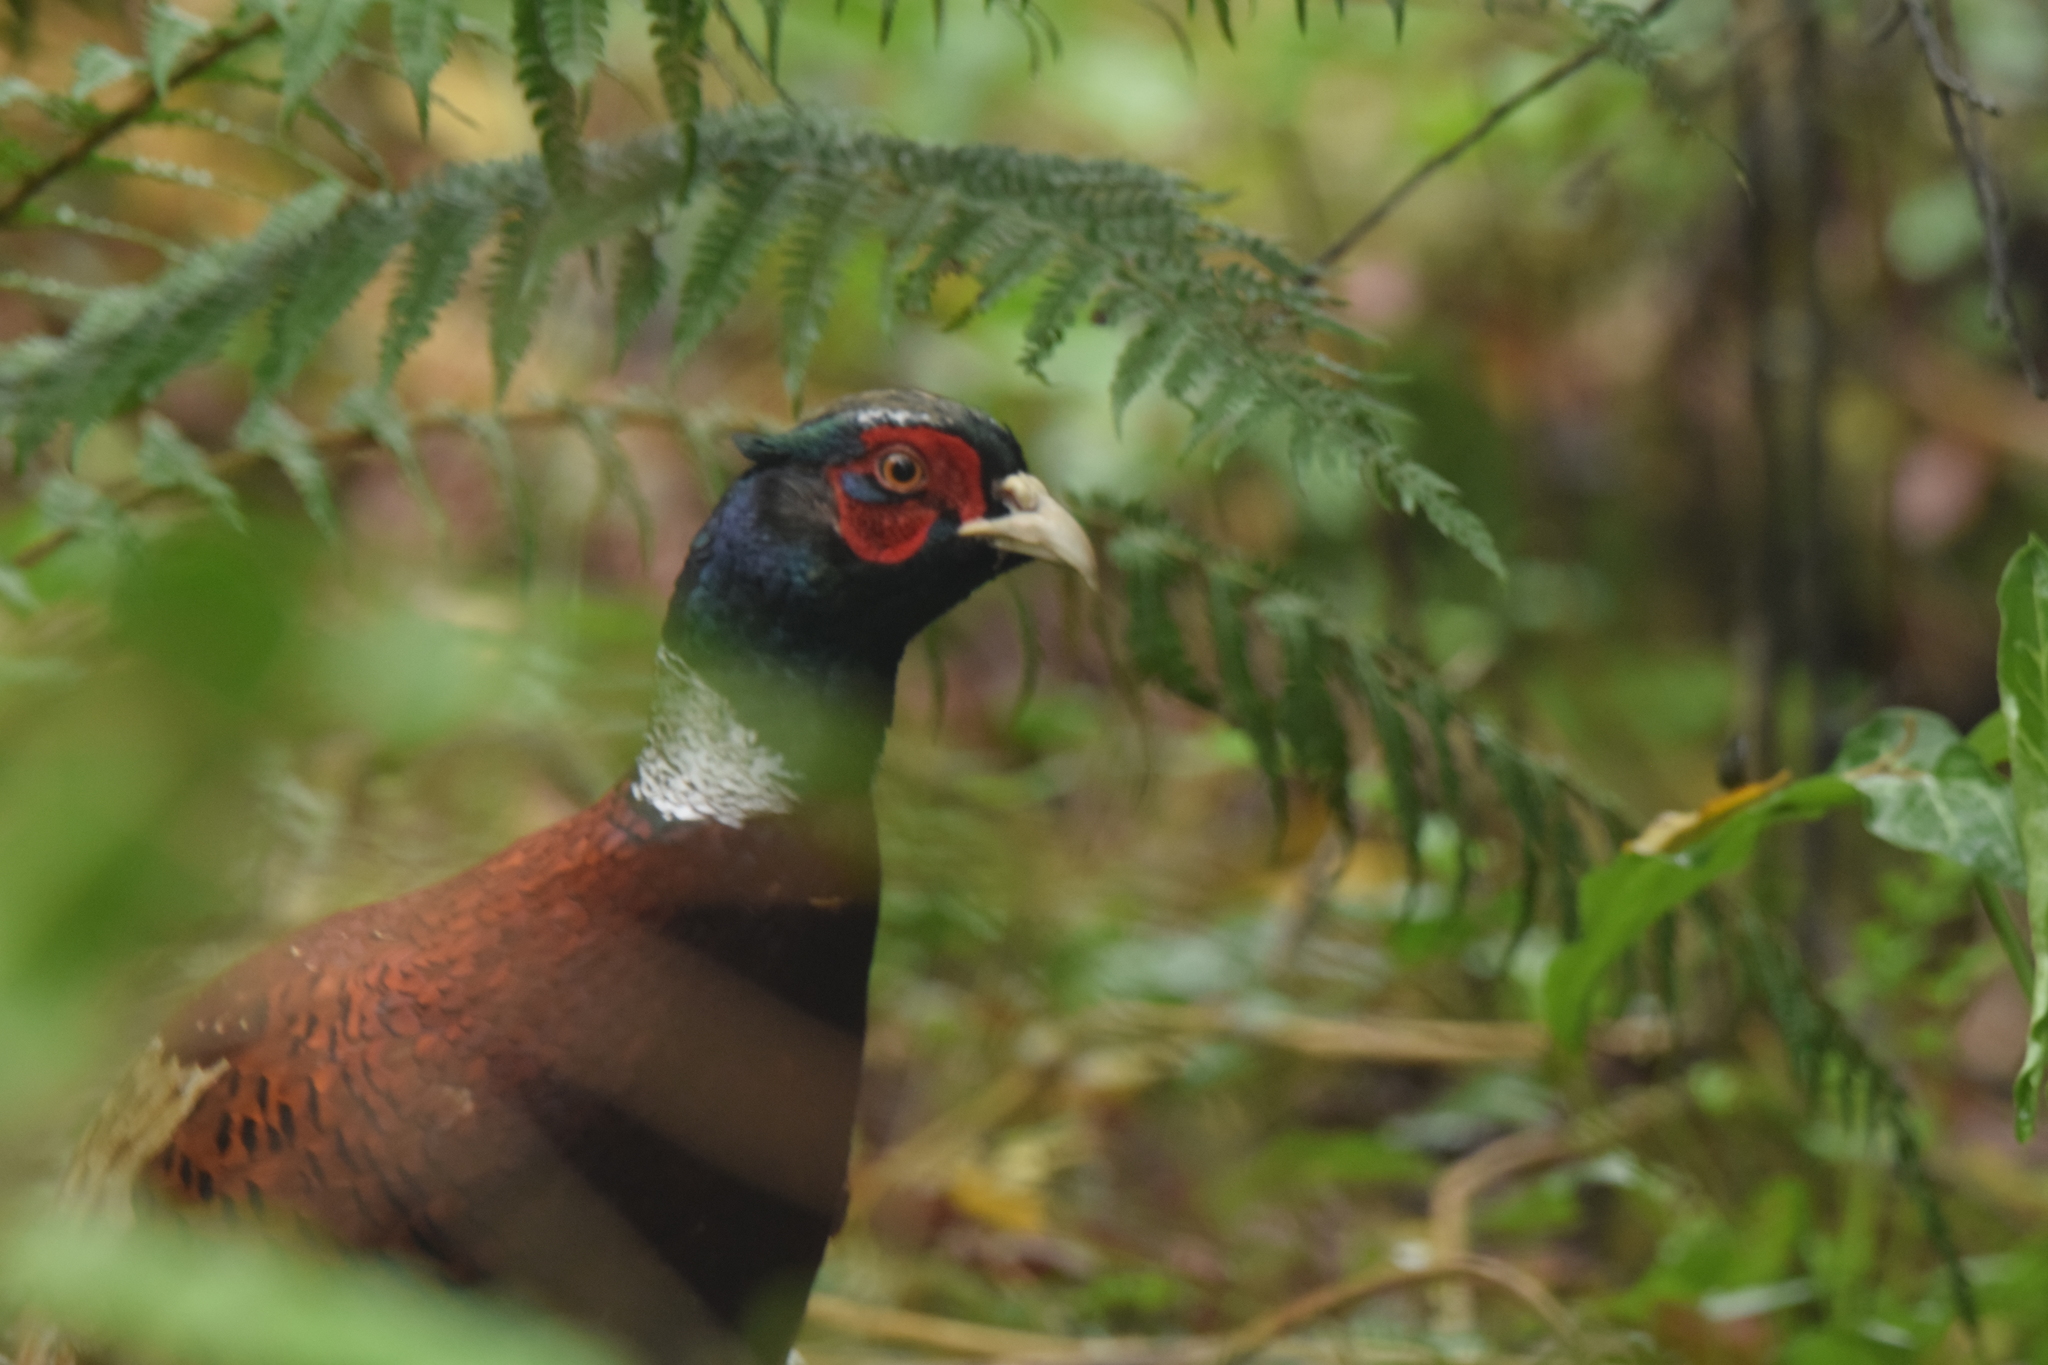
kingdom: Animalia
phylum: Chordata
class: Aves
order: Galliformes
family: Phasianidae
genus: Phasianus
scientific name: Phasianus colchicus
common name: Common pheasant
